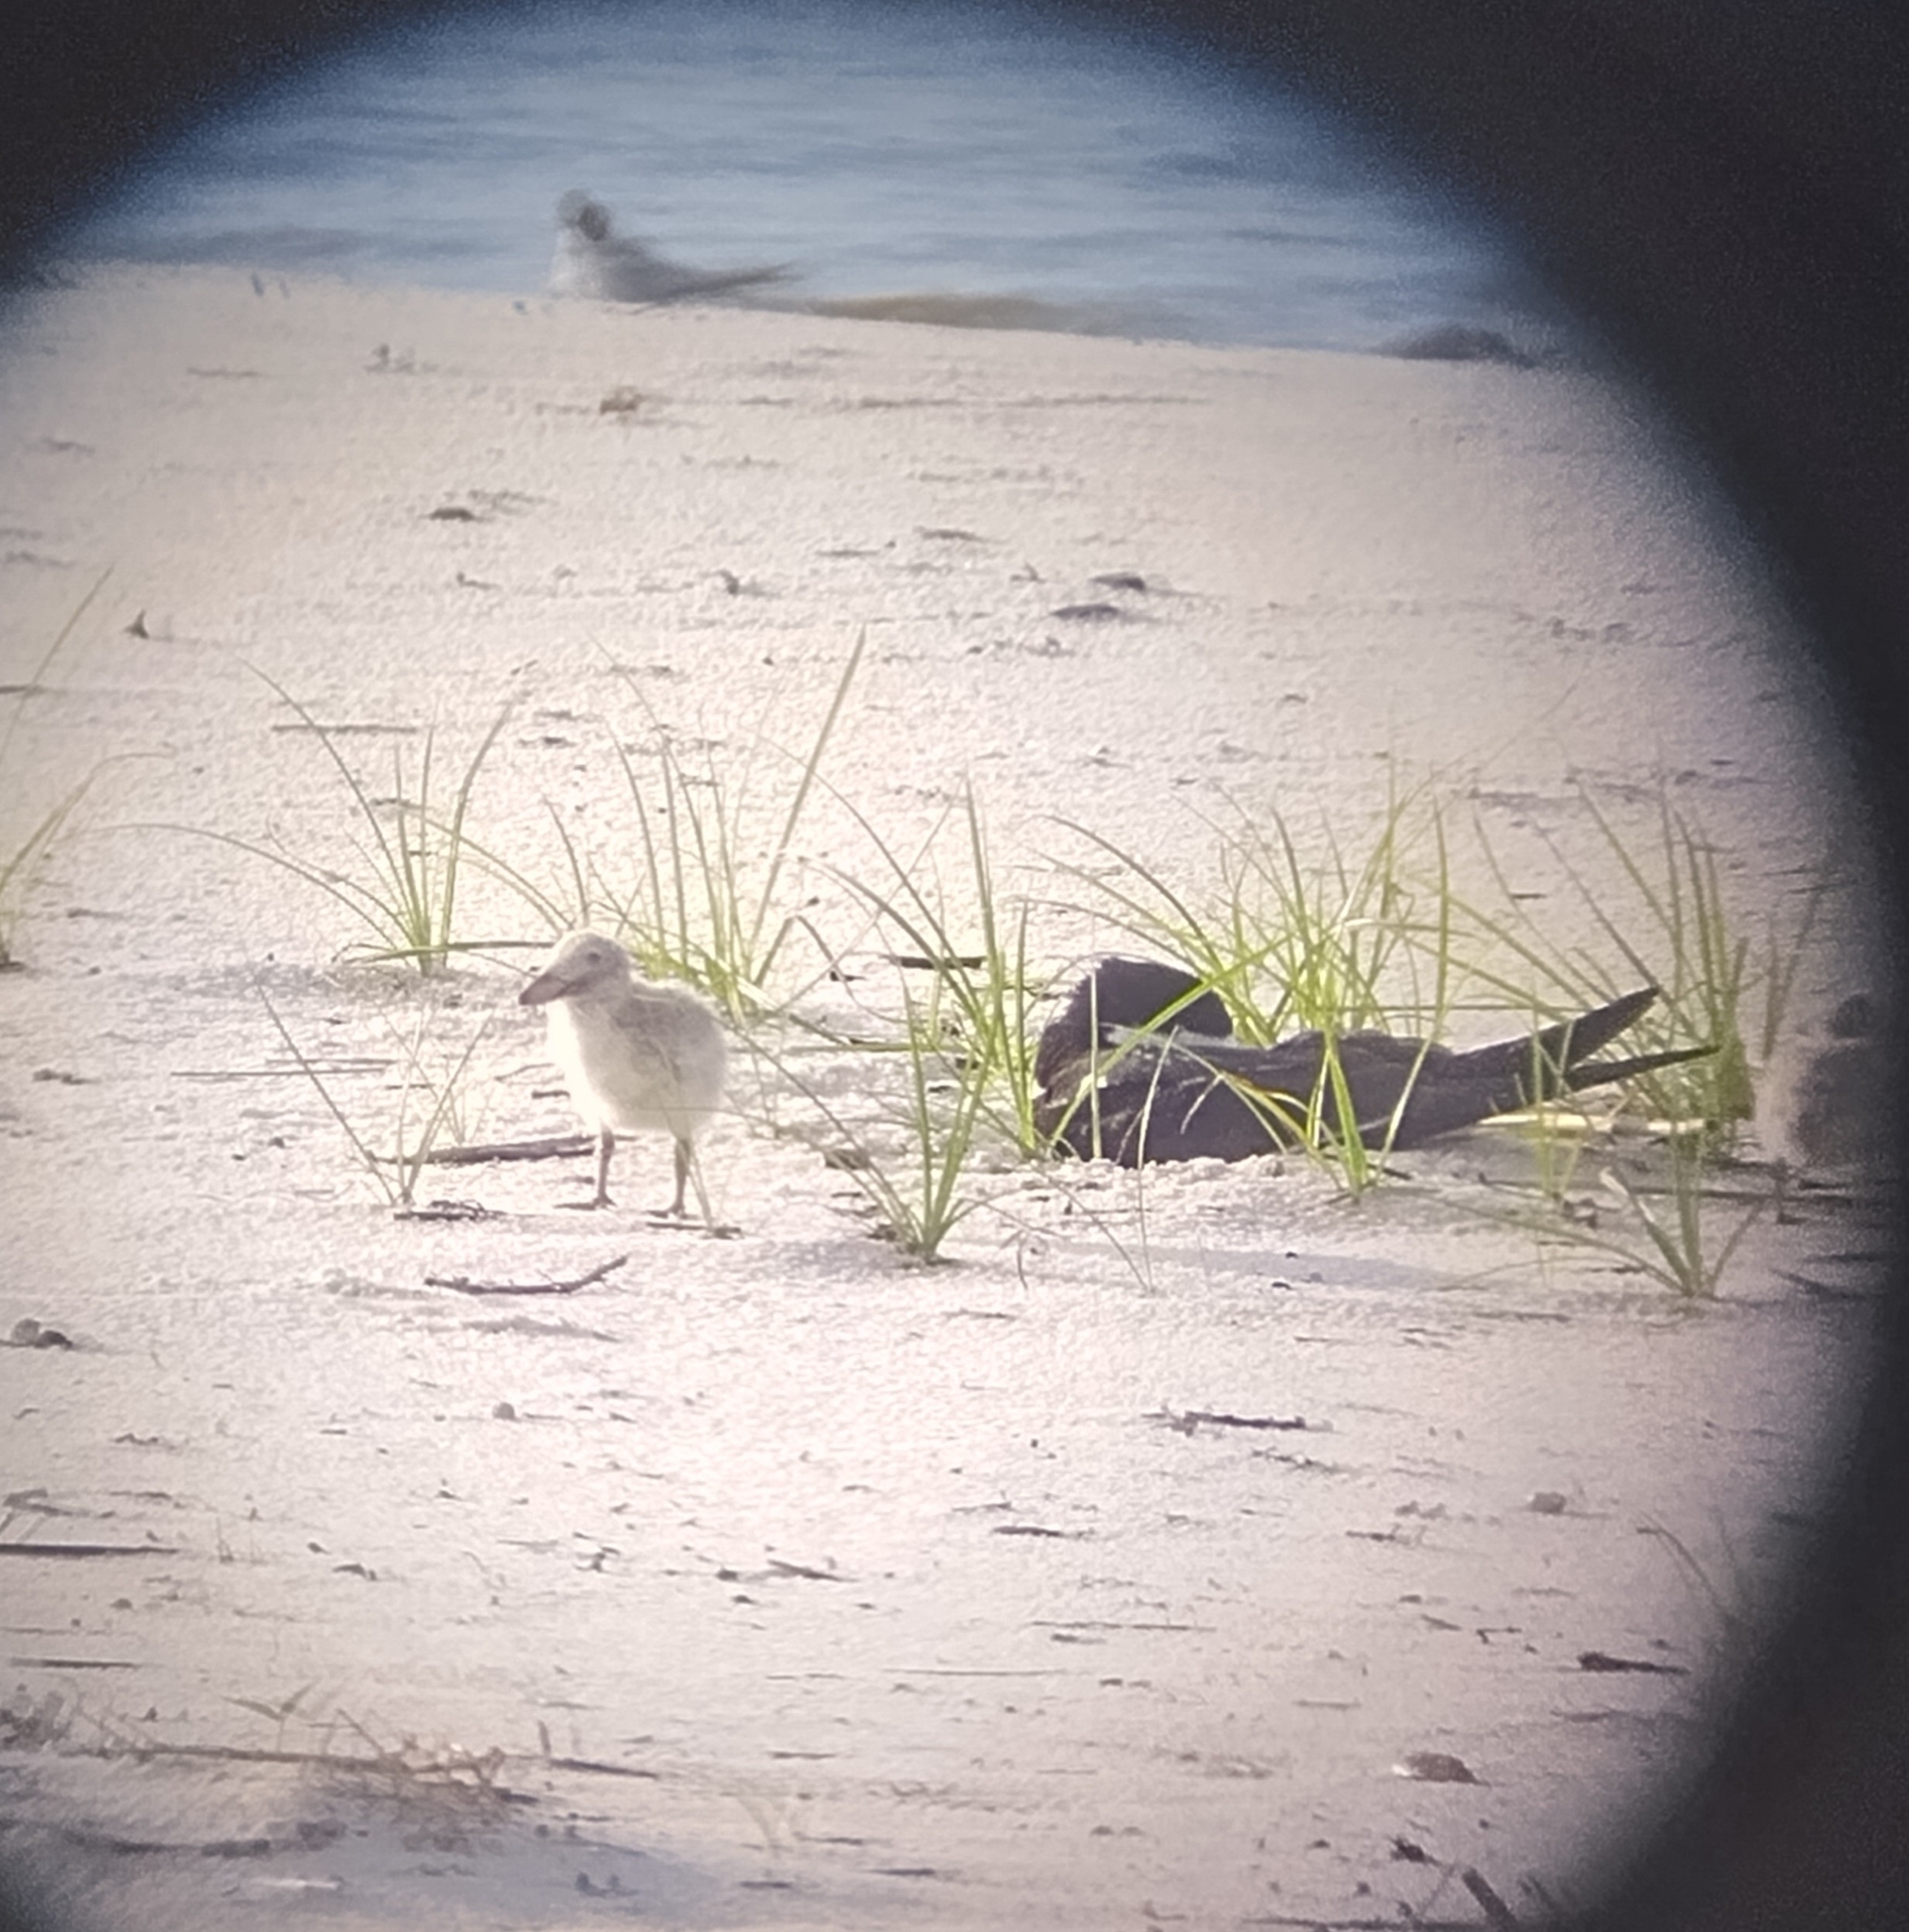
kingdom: Animalia
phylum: Chordata
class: Aves
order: Charadriiformes
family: Laridae
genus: Rynchops
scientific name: Rynchops niger
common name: Black skimmer
